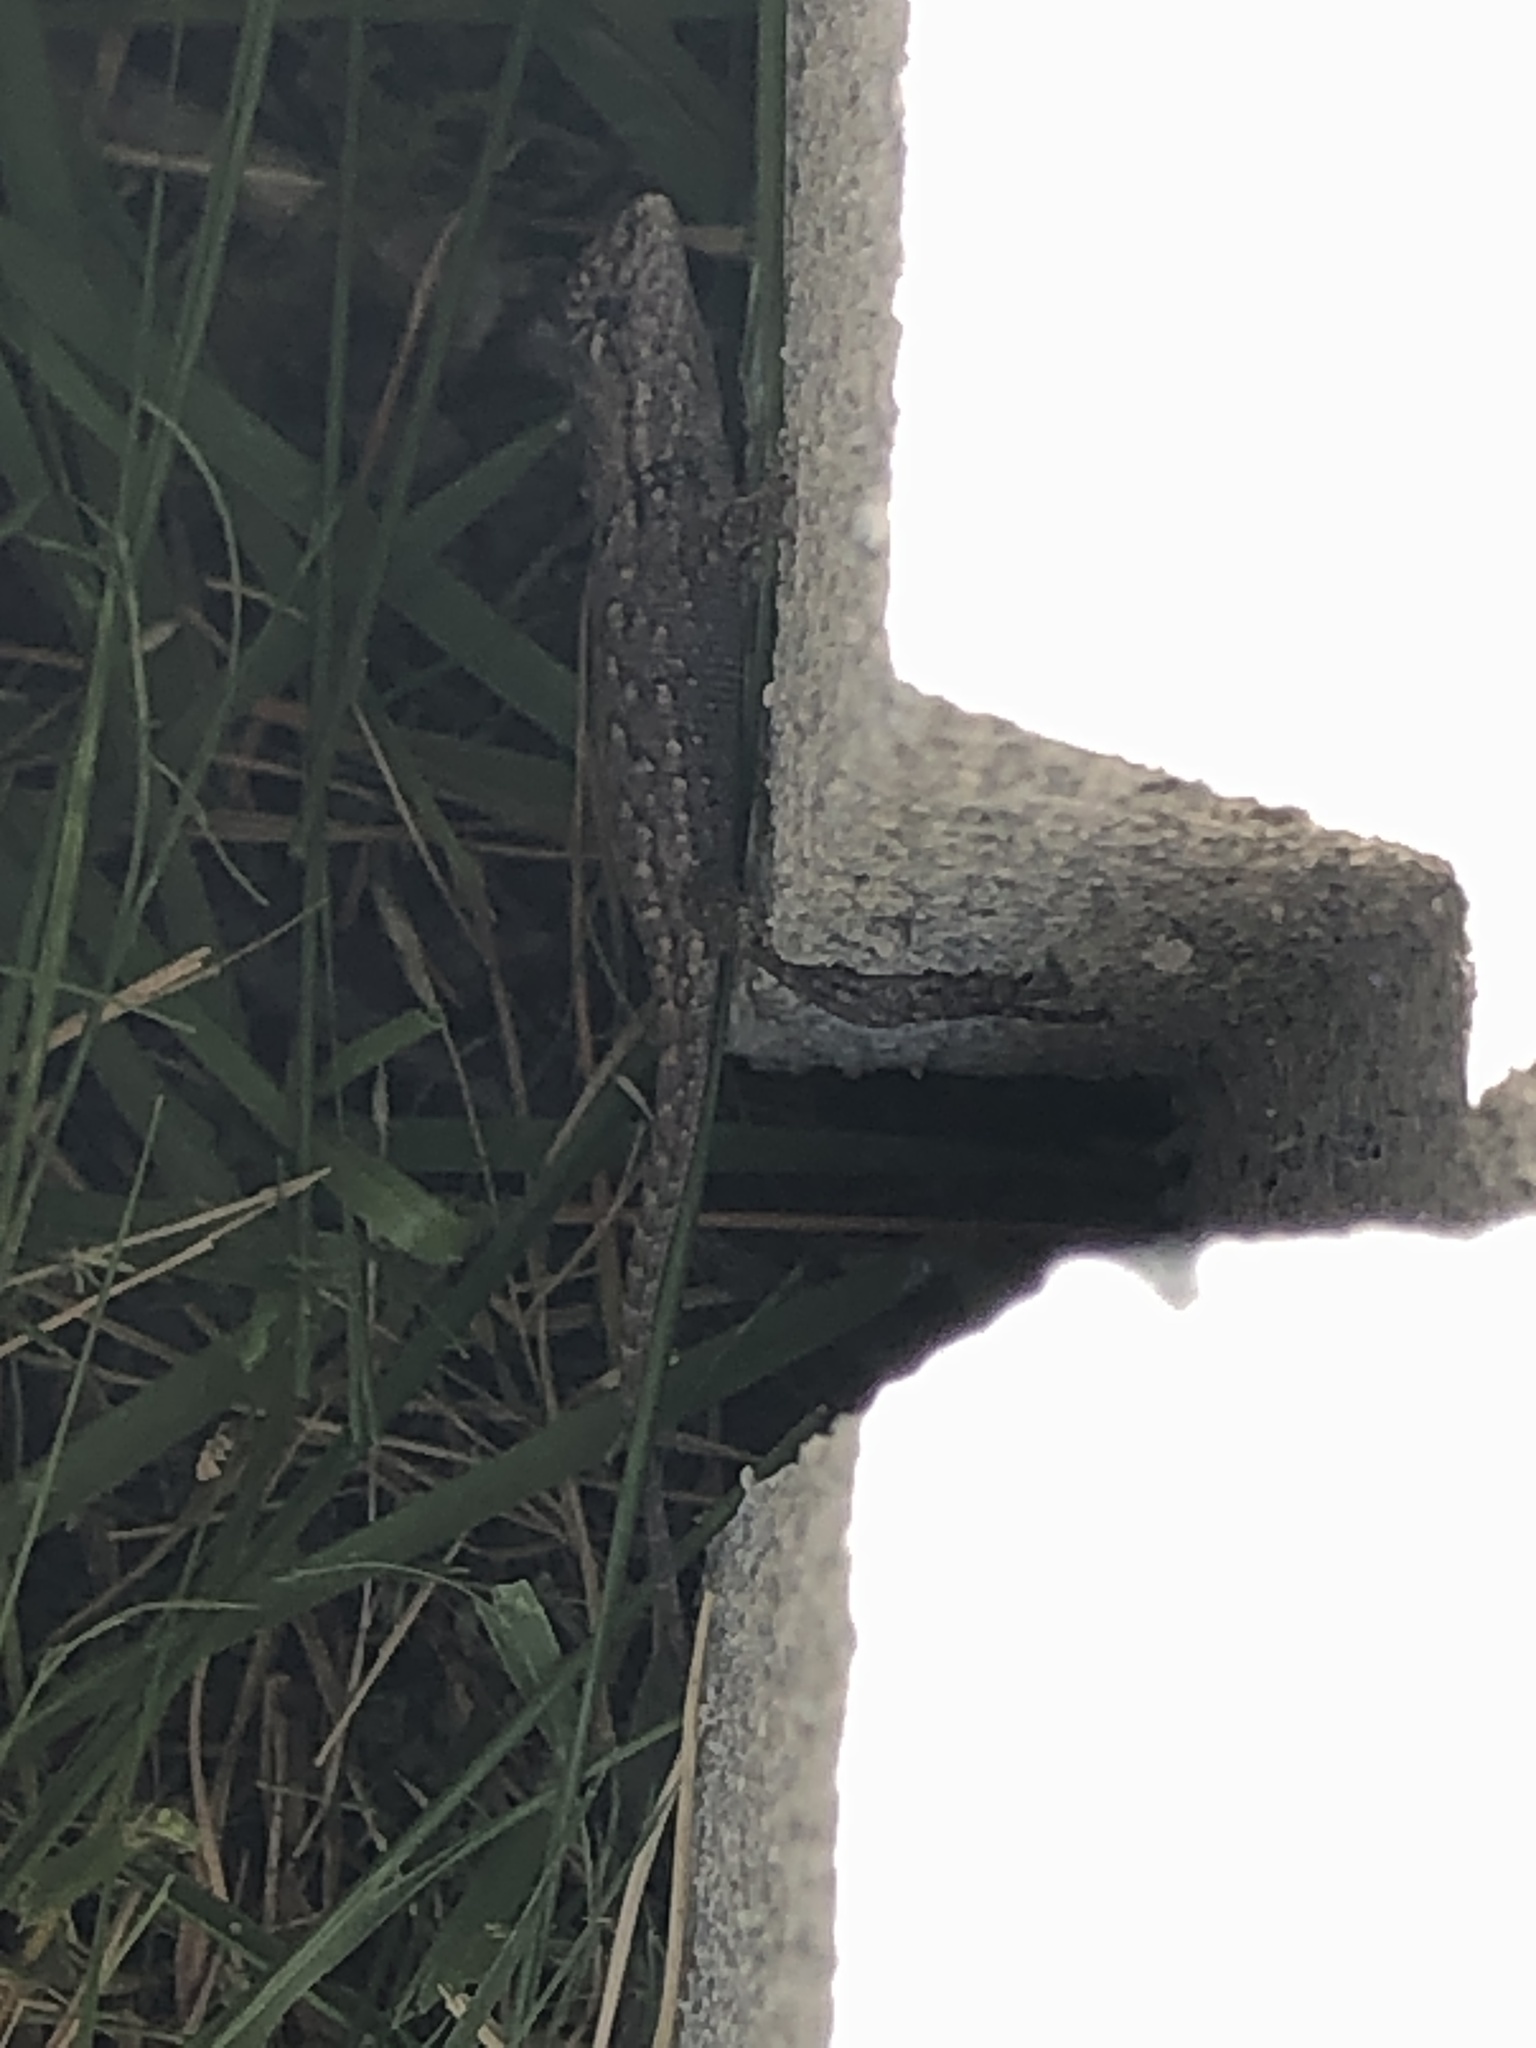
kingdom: Animalia
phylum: Chordata
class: Squamata
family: Phrynosomatidae
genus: Sceloporus
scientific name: Sceloporus undulatus
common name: Eastern fence lizard
